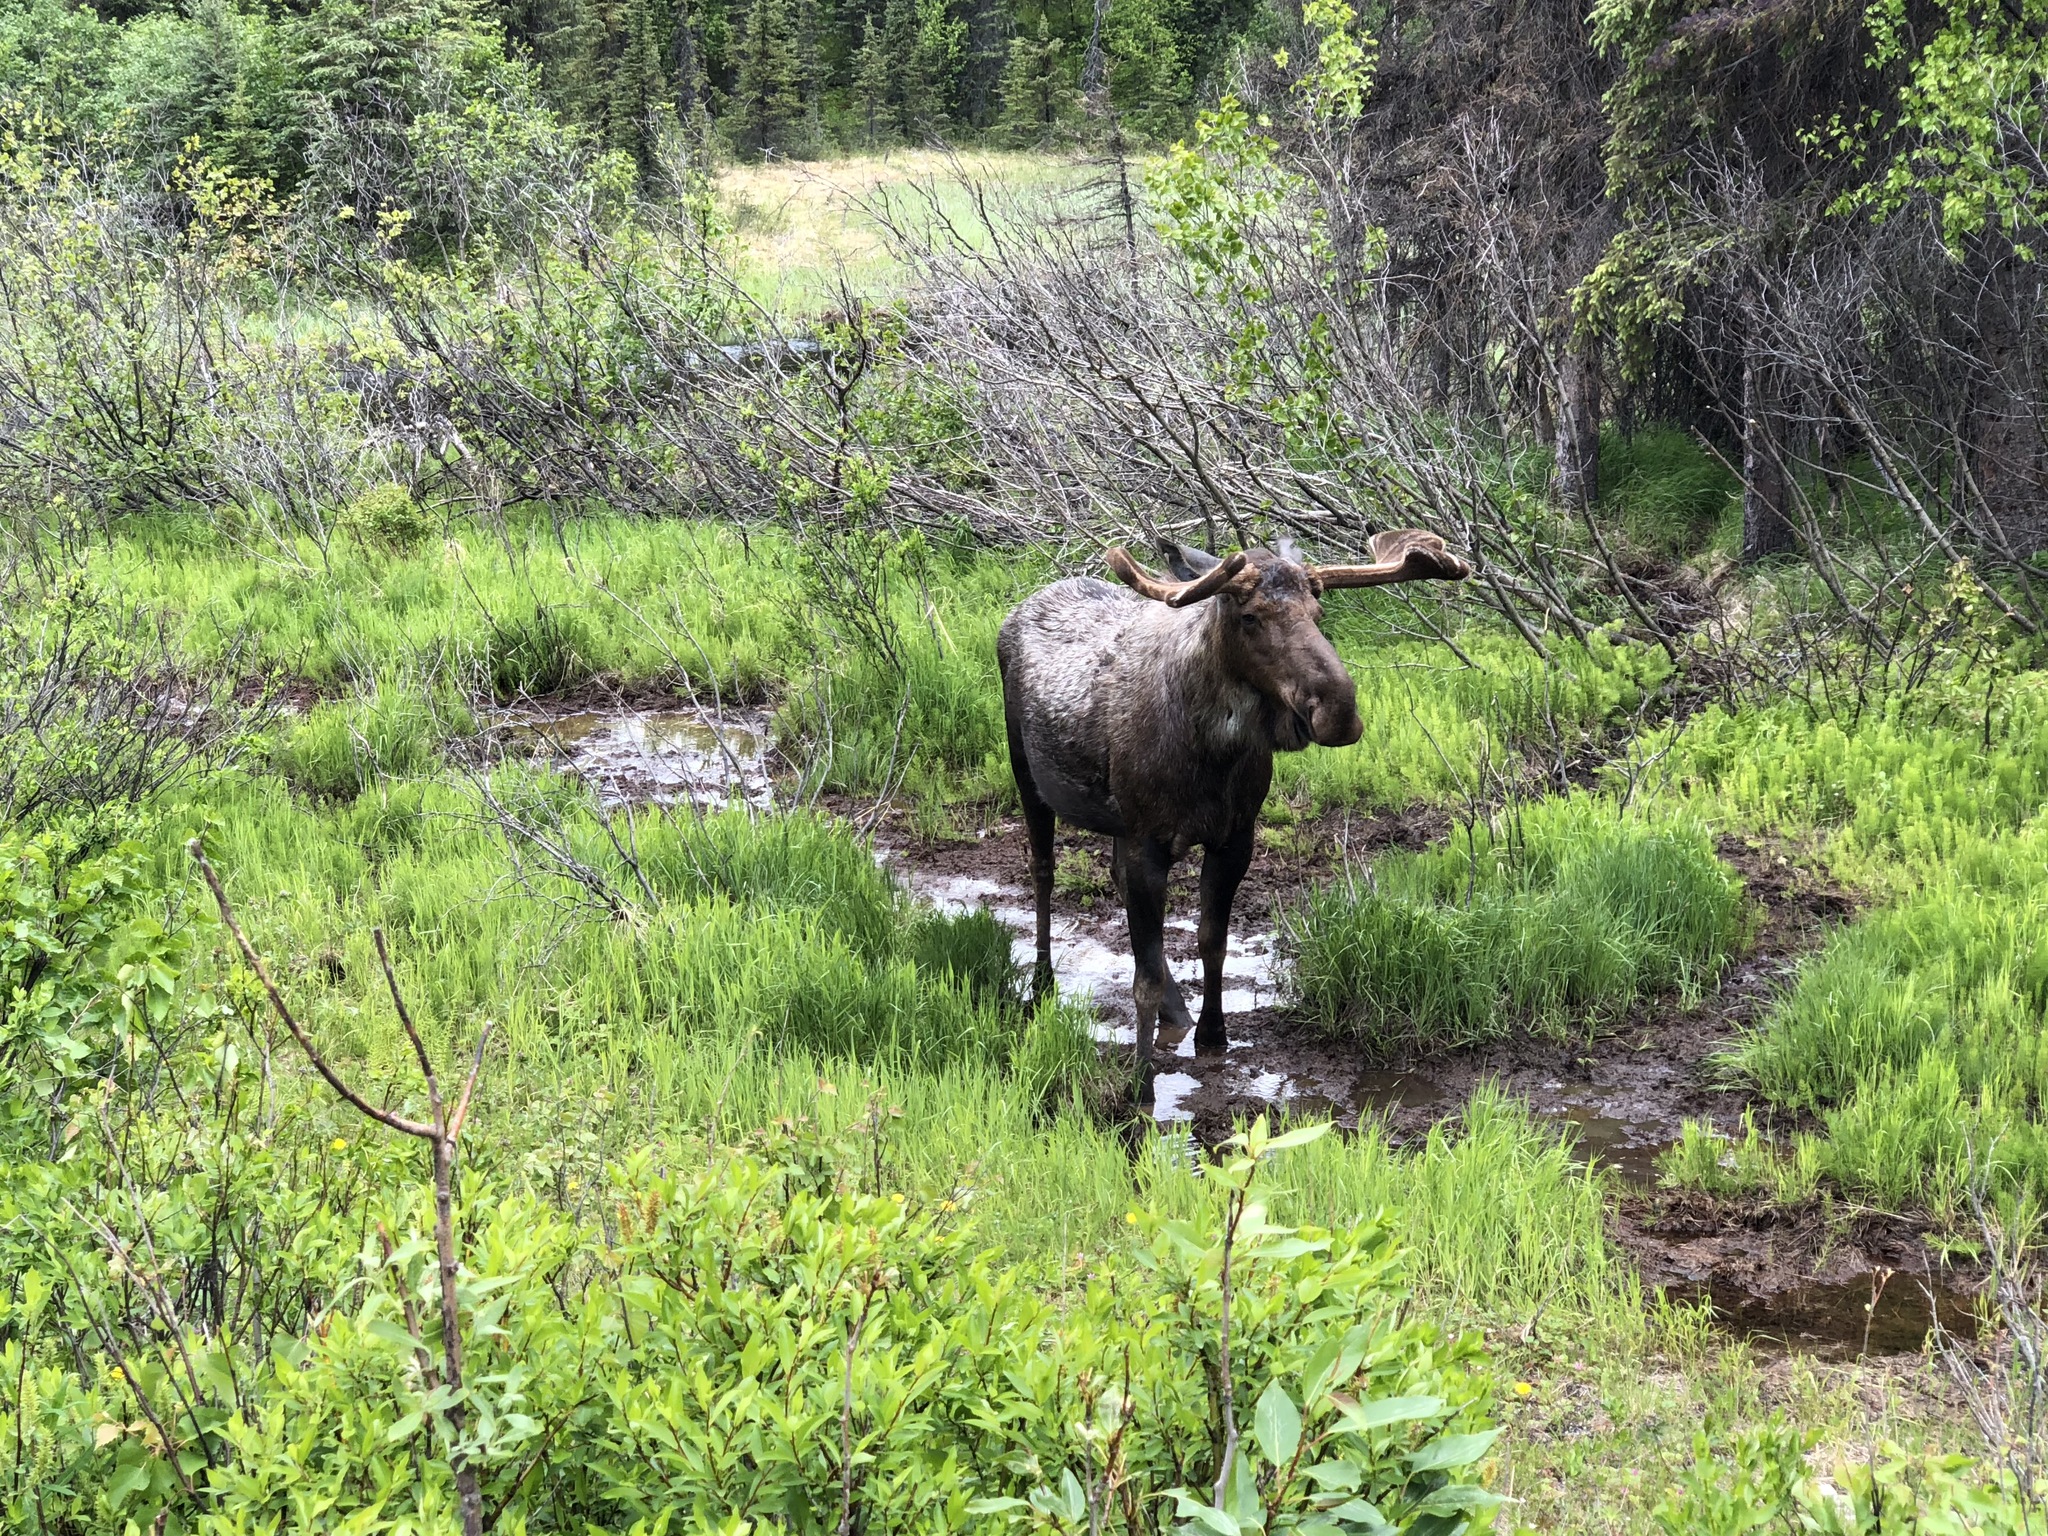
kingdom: Animalia
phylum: Chordata
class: Mammalia
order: Artiodactyla
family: Cervidae
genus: Alces
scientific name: Alces alces
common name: Moose
